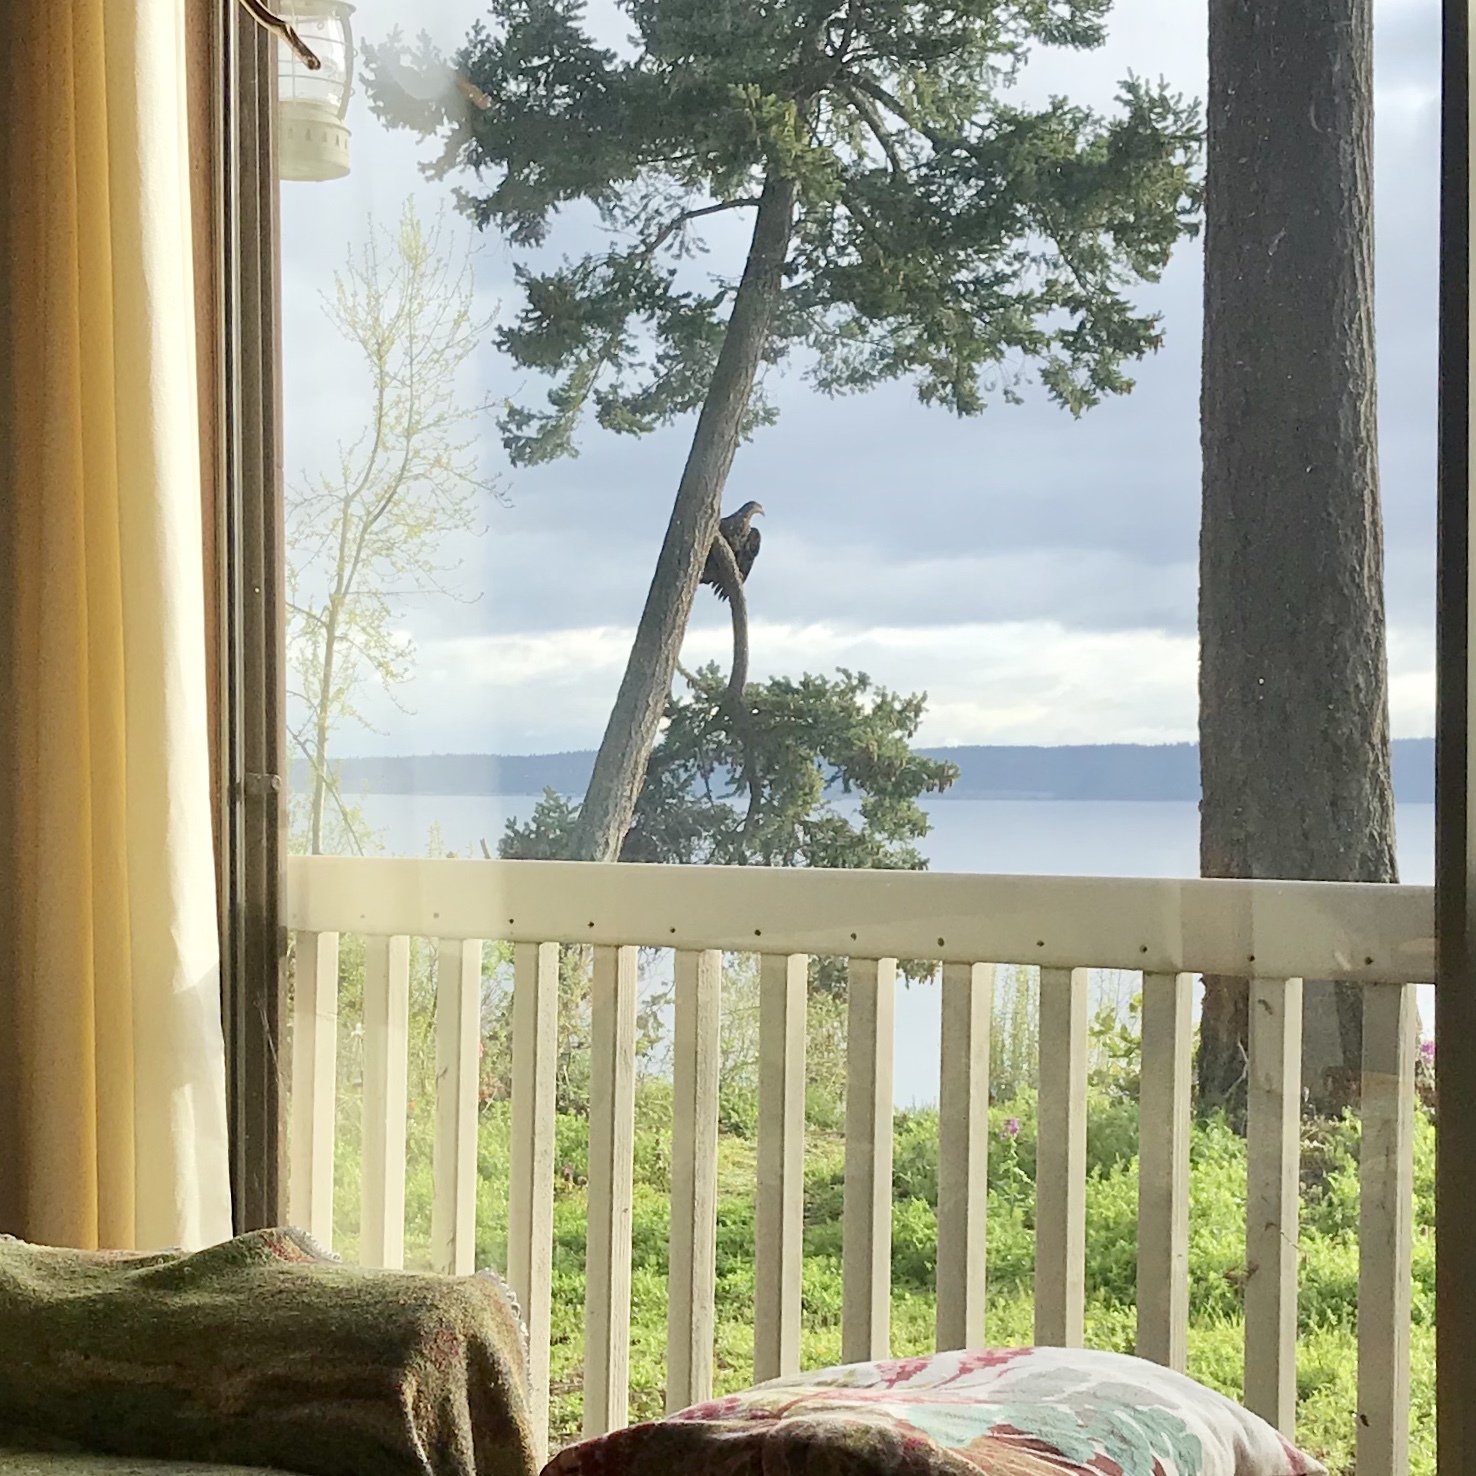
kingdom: Animalia
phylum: Chordata
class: Aves
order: Accipitriformes
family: Accipitridae
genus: Haliaeetus
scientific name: Haliaeetus leucocephalus
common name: Bald eagle
